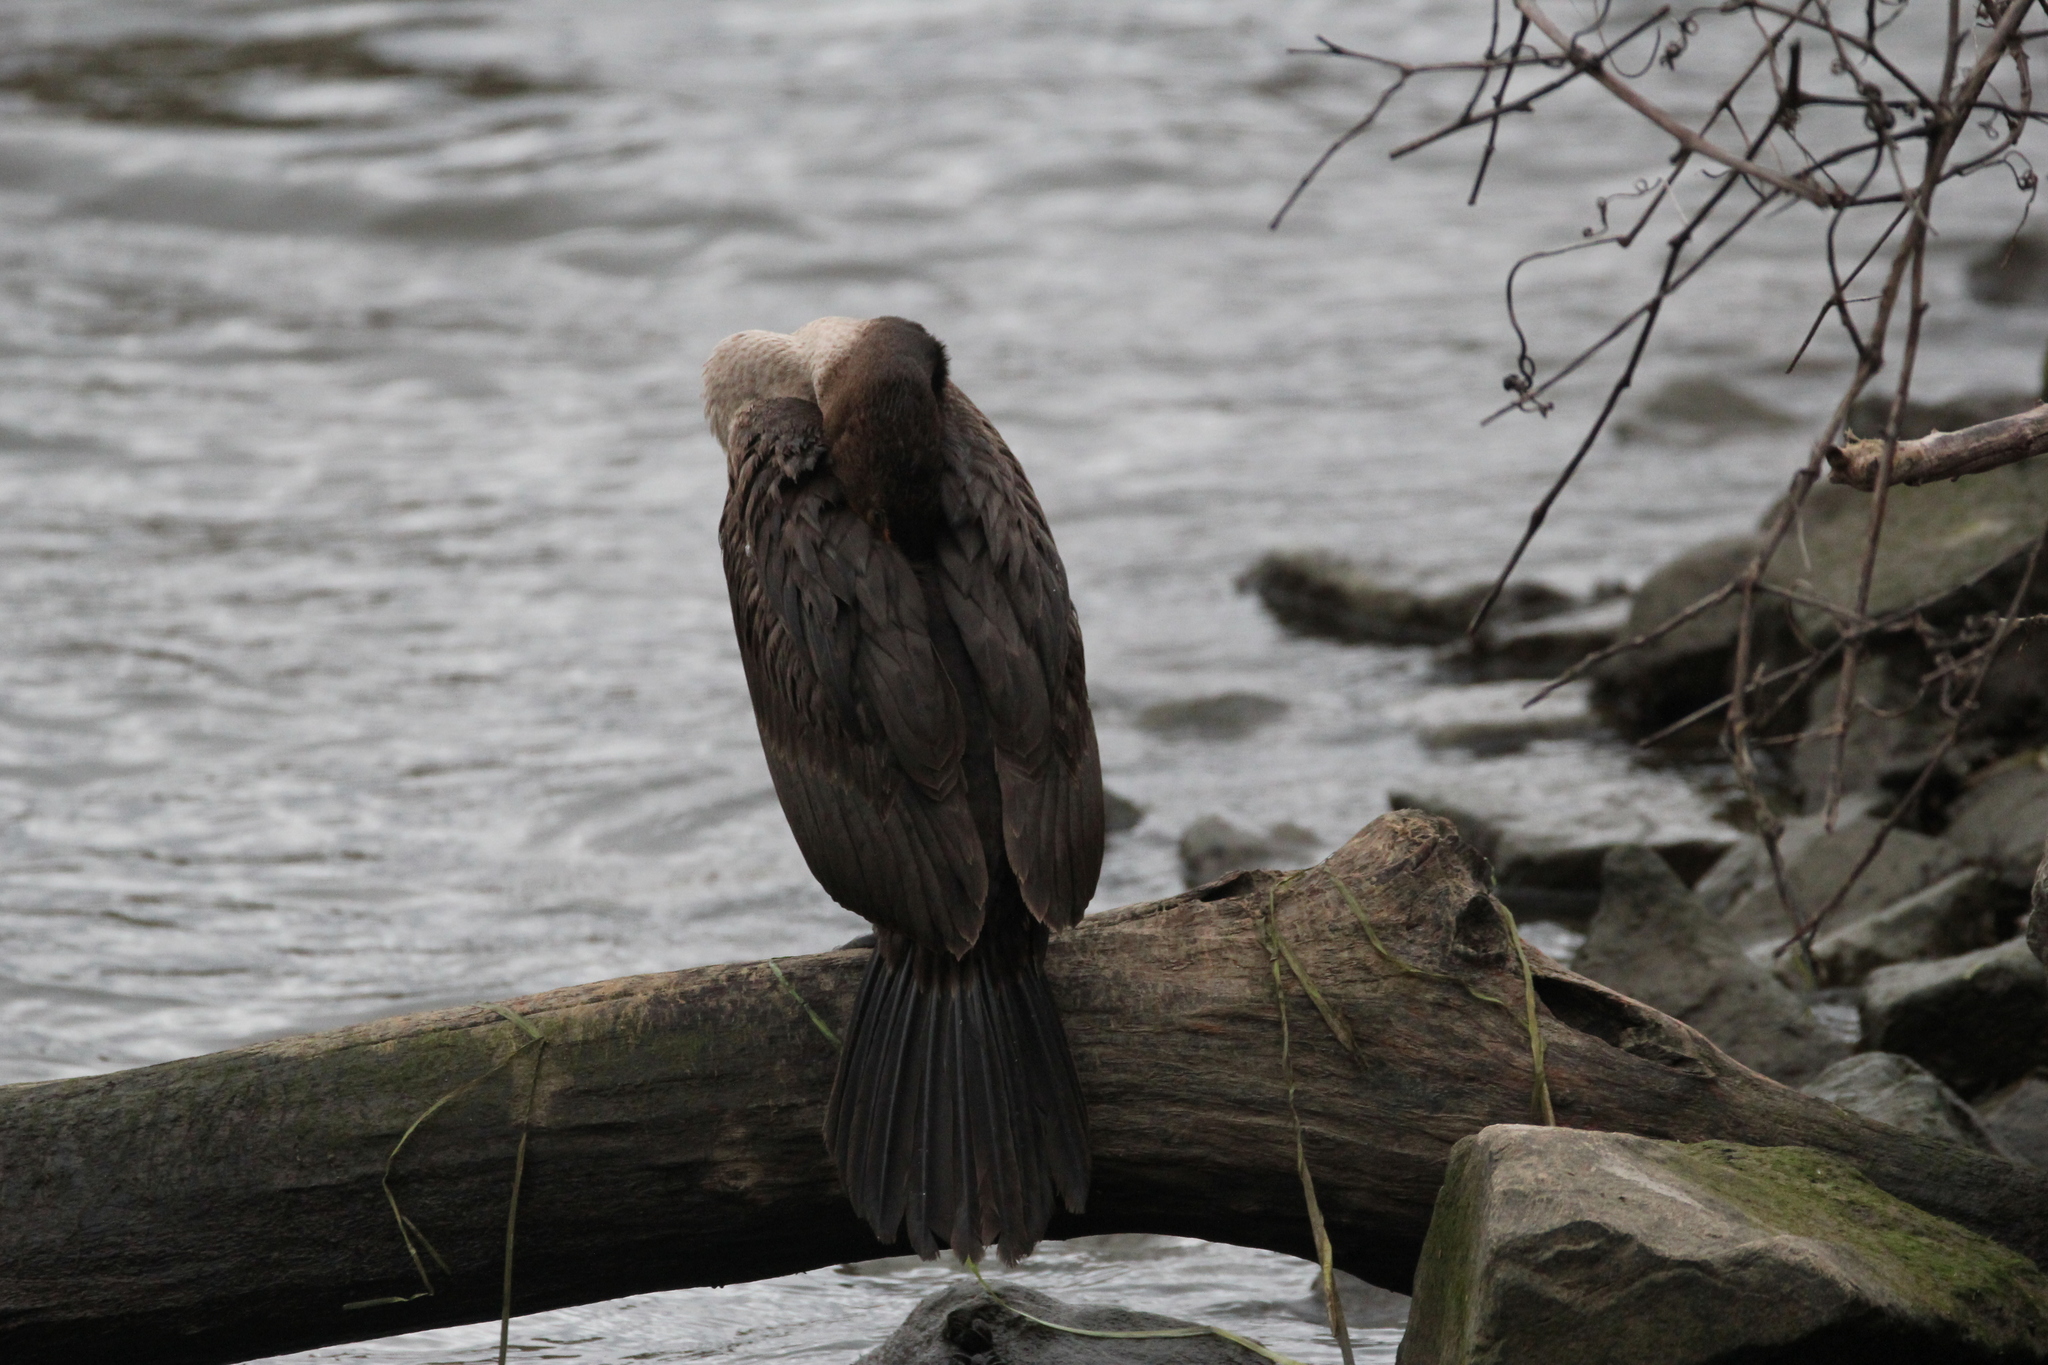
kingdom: Animalia
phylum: Chordata
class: Aves
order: Suliformes
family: Phalacrocoracidae
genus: Phalacrocorax
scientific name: Phalacrocorax auritus
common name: Double-crested cormorant
